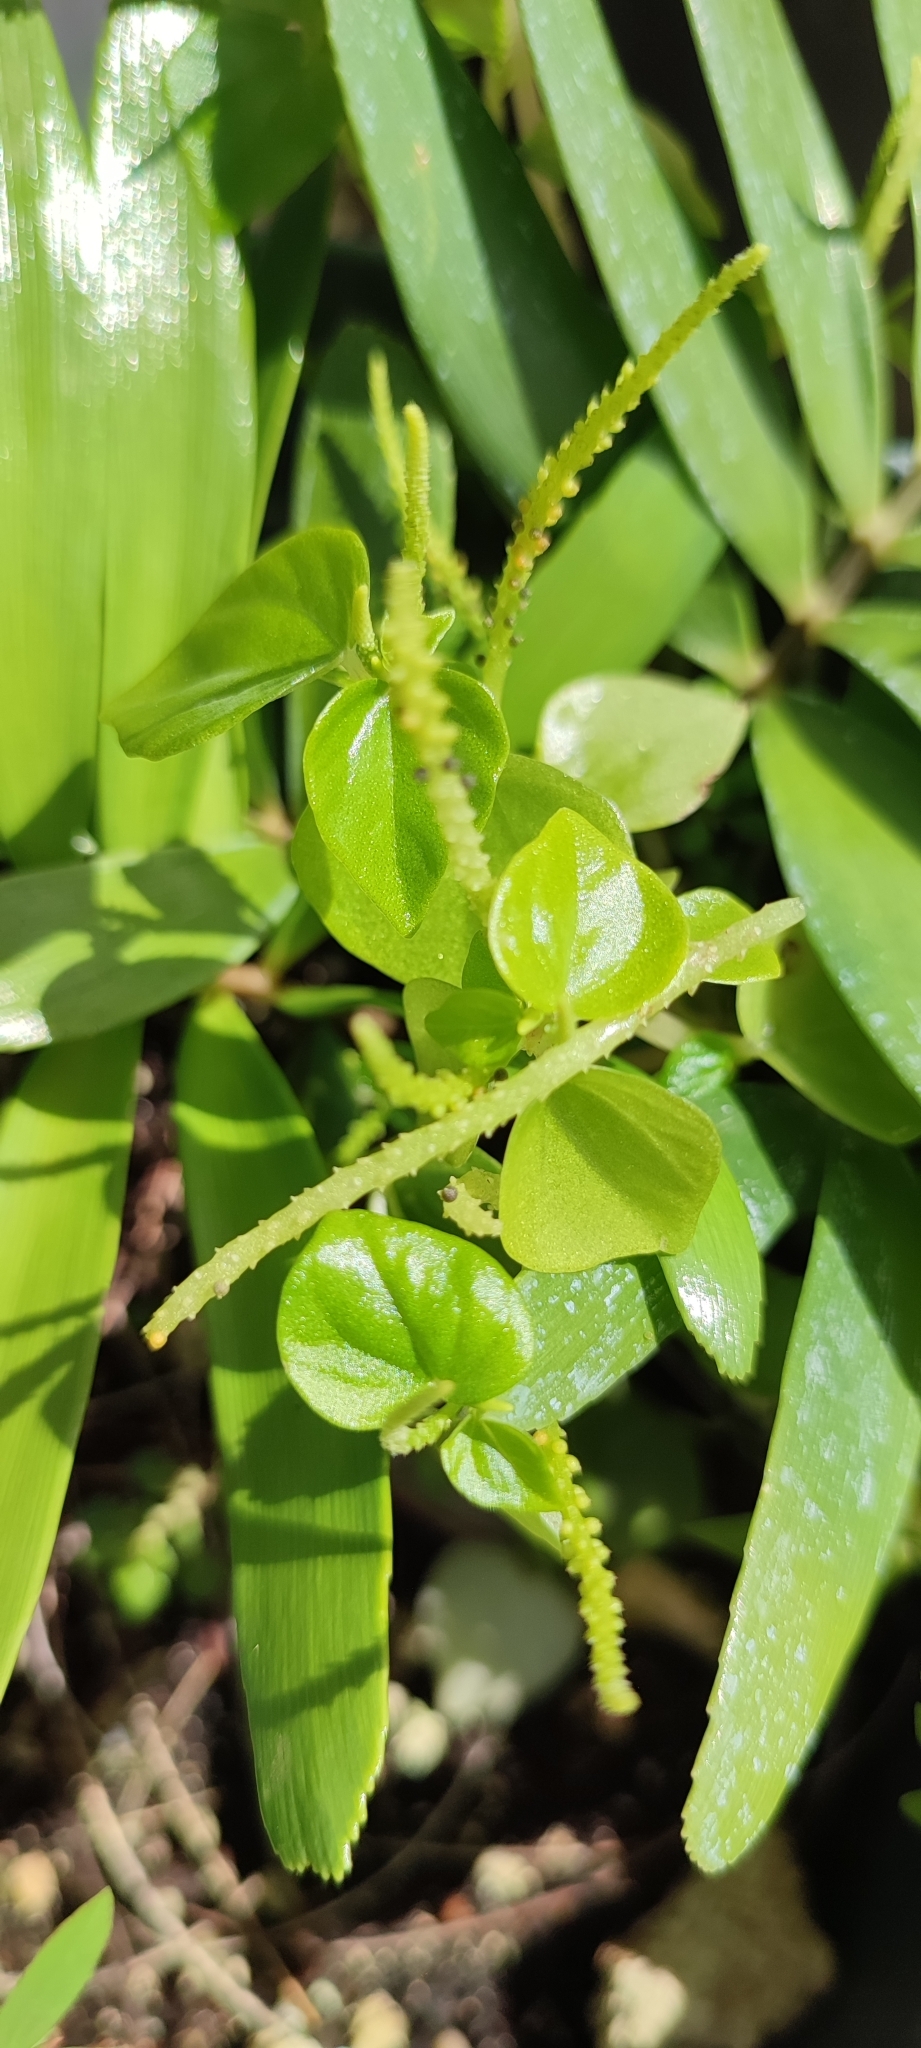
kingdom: Plantae
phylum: Tracheophyta
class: Magnoliopsida
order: Piperales
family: Piperaceae
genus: Peperomia
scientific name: Peperomia pellucida
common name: Man to man
